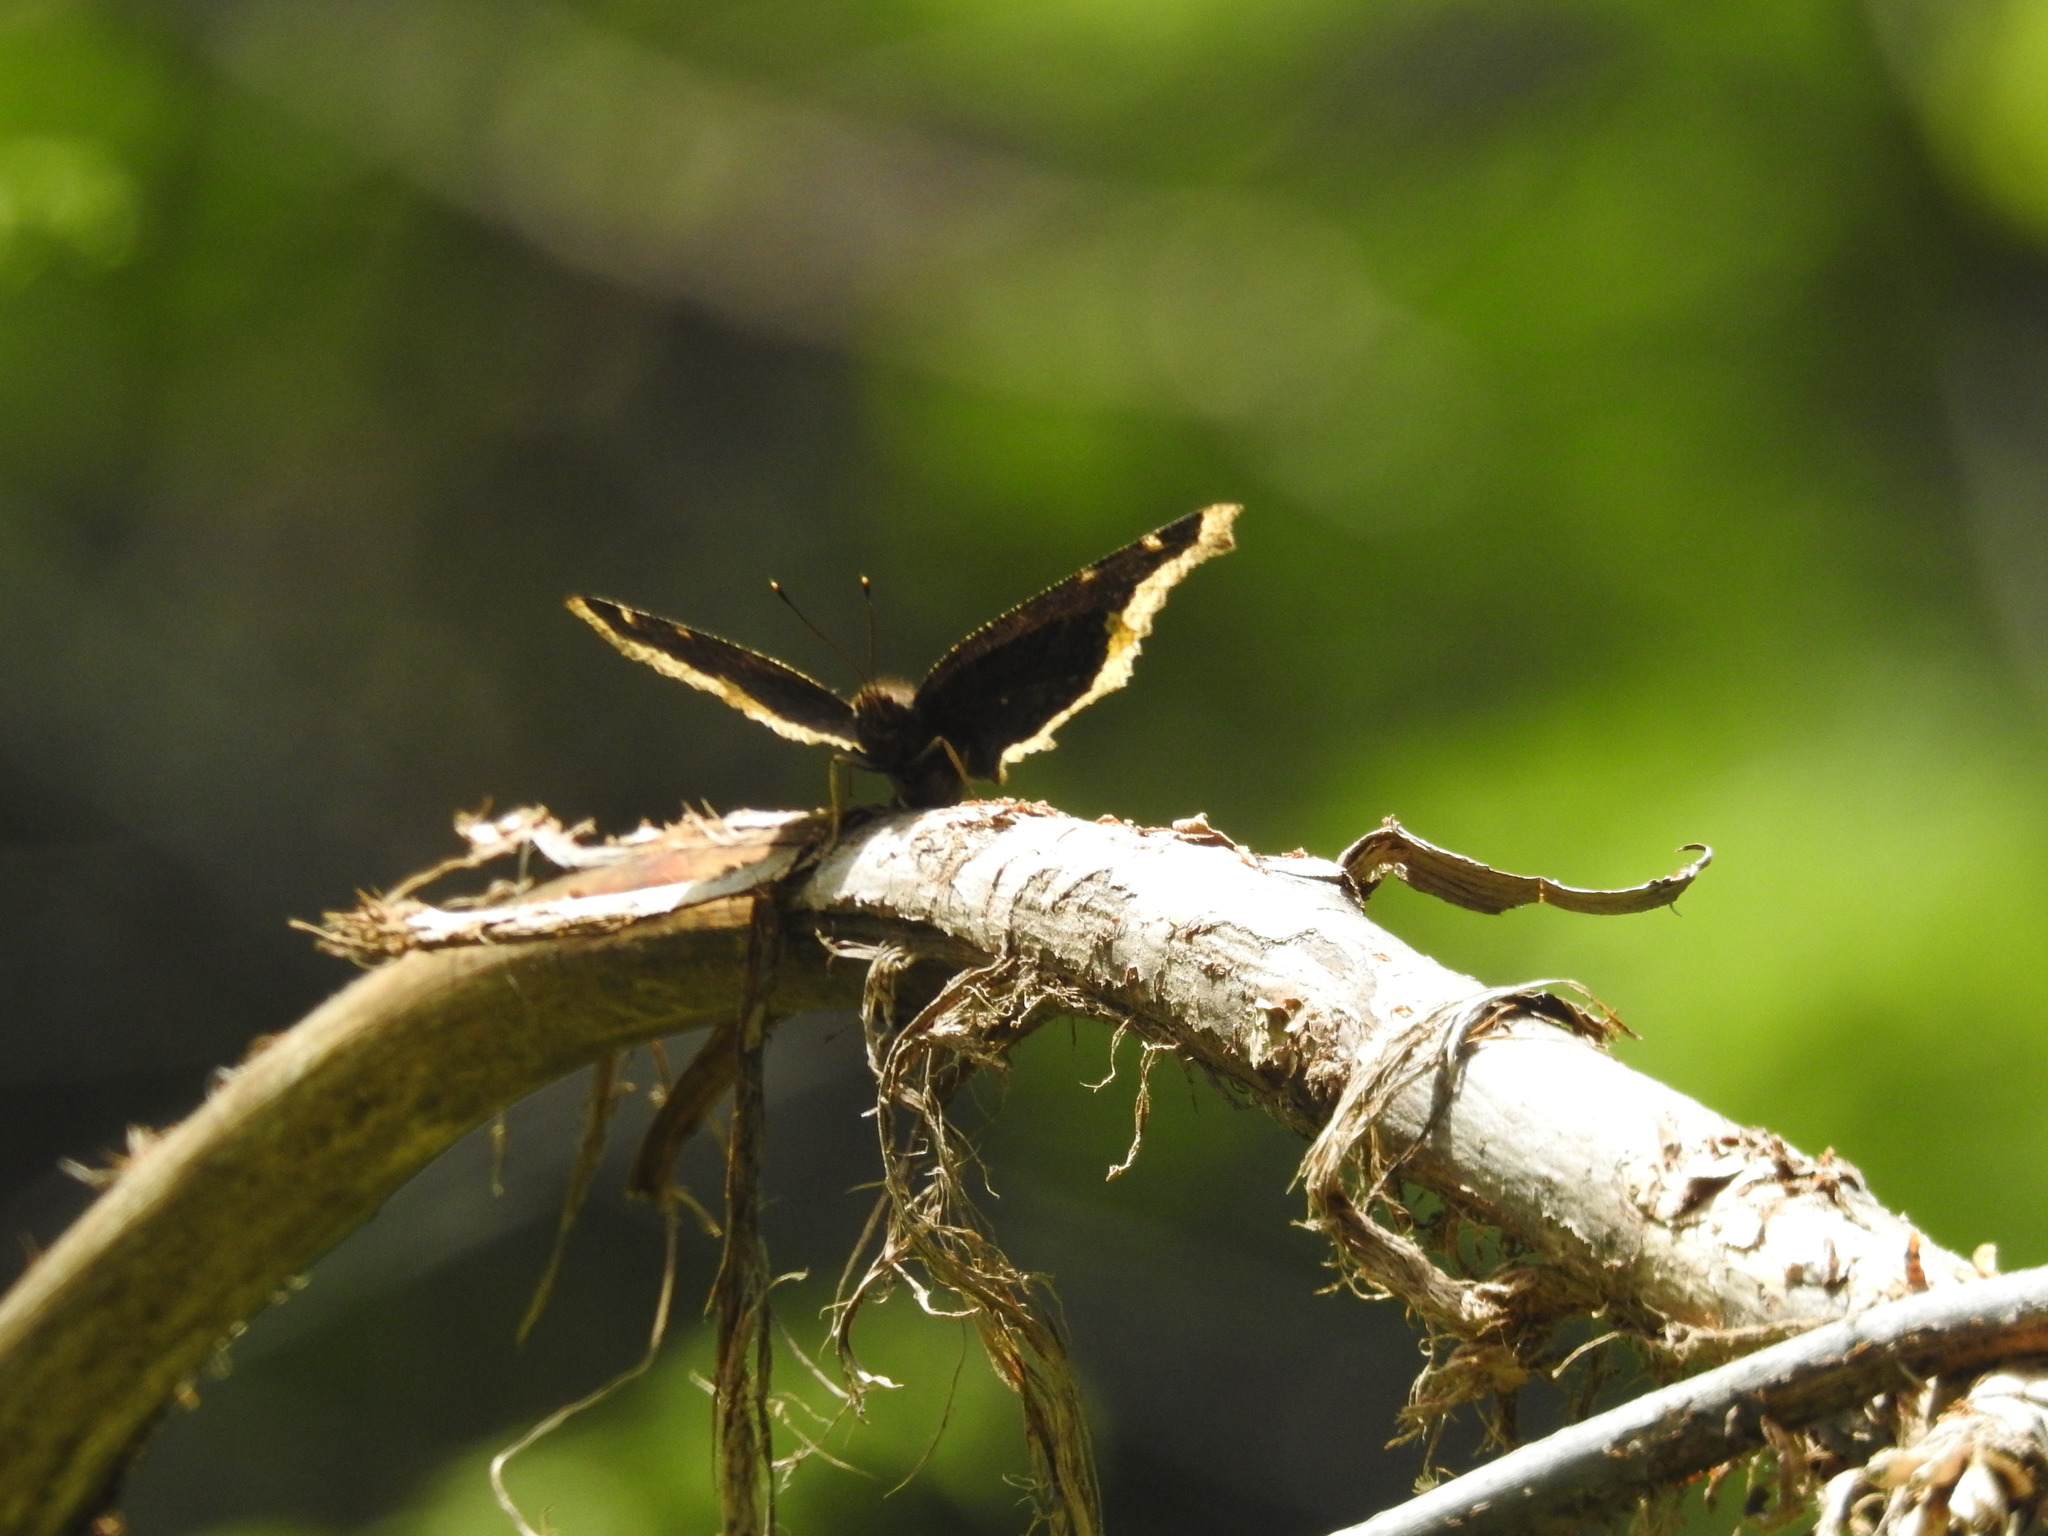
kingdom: Animalia
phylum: Arthropoda
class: Insecta
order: Lepidoptera
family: Nymphalidae
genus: Nymphalis
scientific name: Nymphalis antiopa
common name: Camberwell beauty
